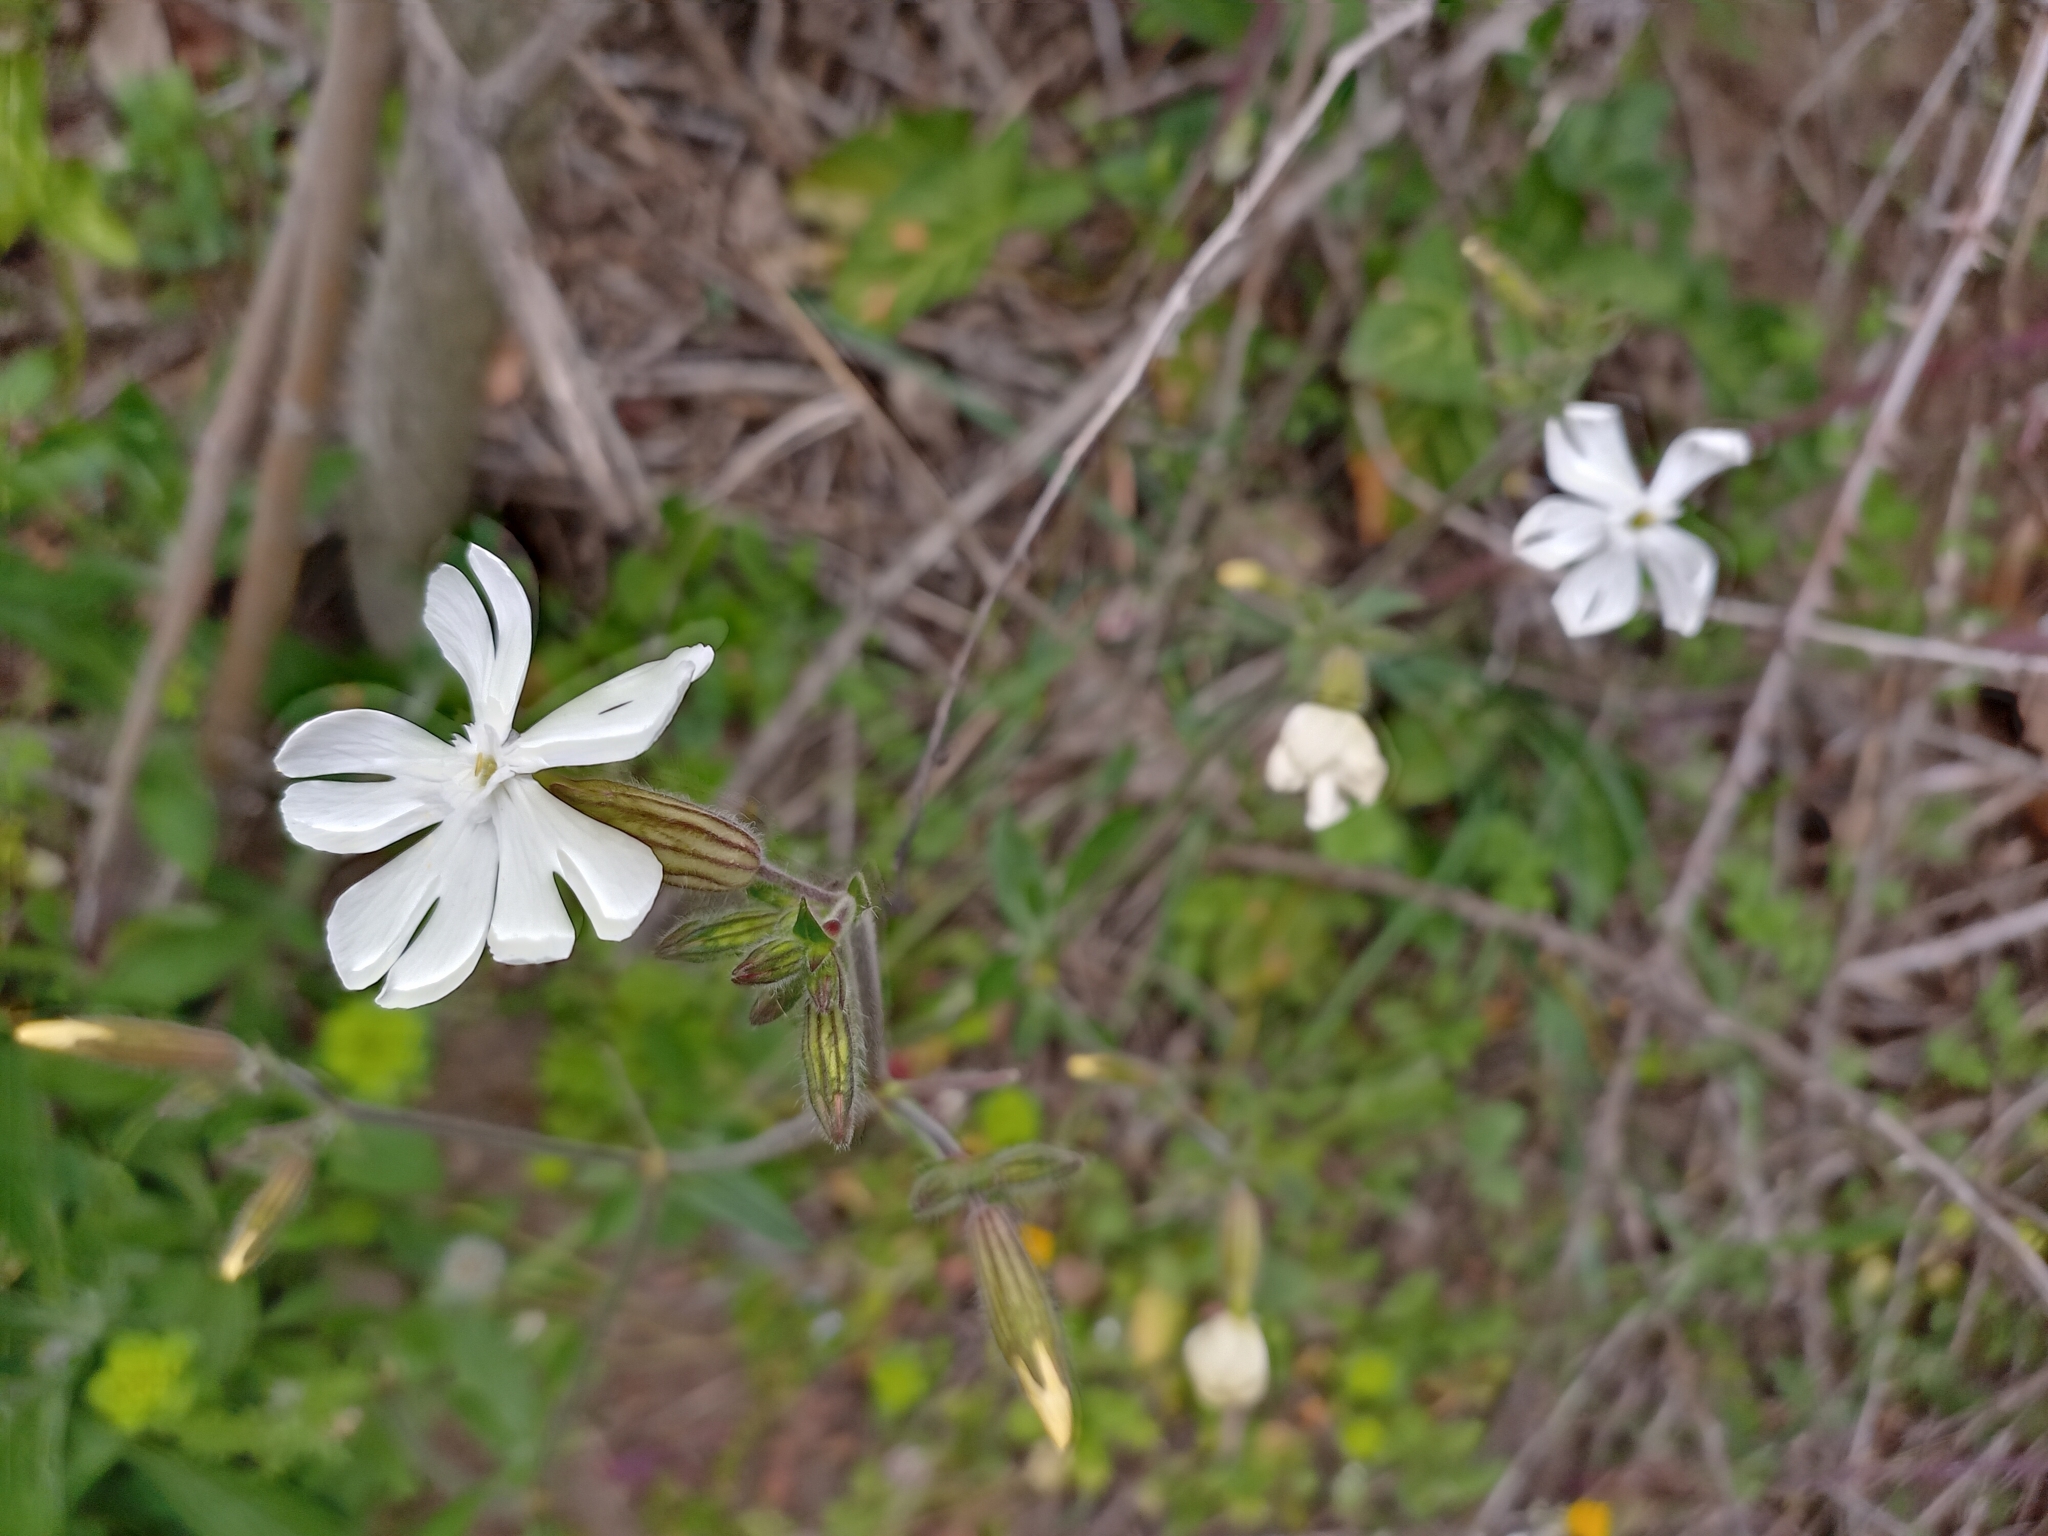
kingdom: Plantae
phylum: Tracheophyta
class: Magnoliopsida
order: Caryophyllales
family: Caryophyllaceae
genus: Silene
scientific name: Silene latifolia
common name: White campion
